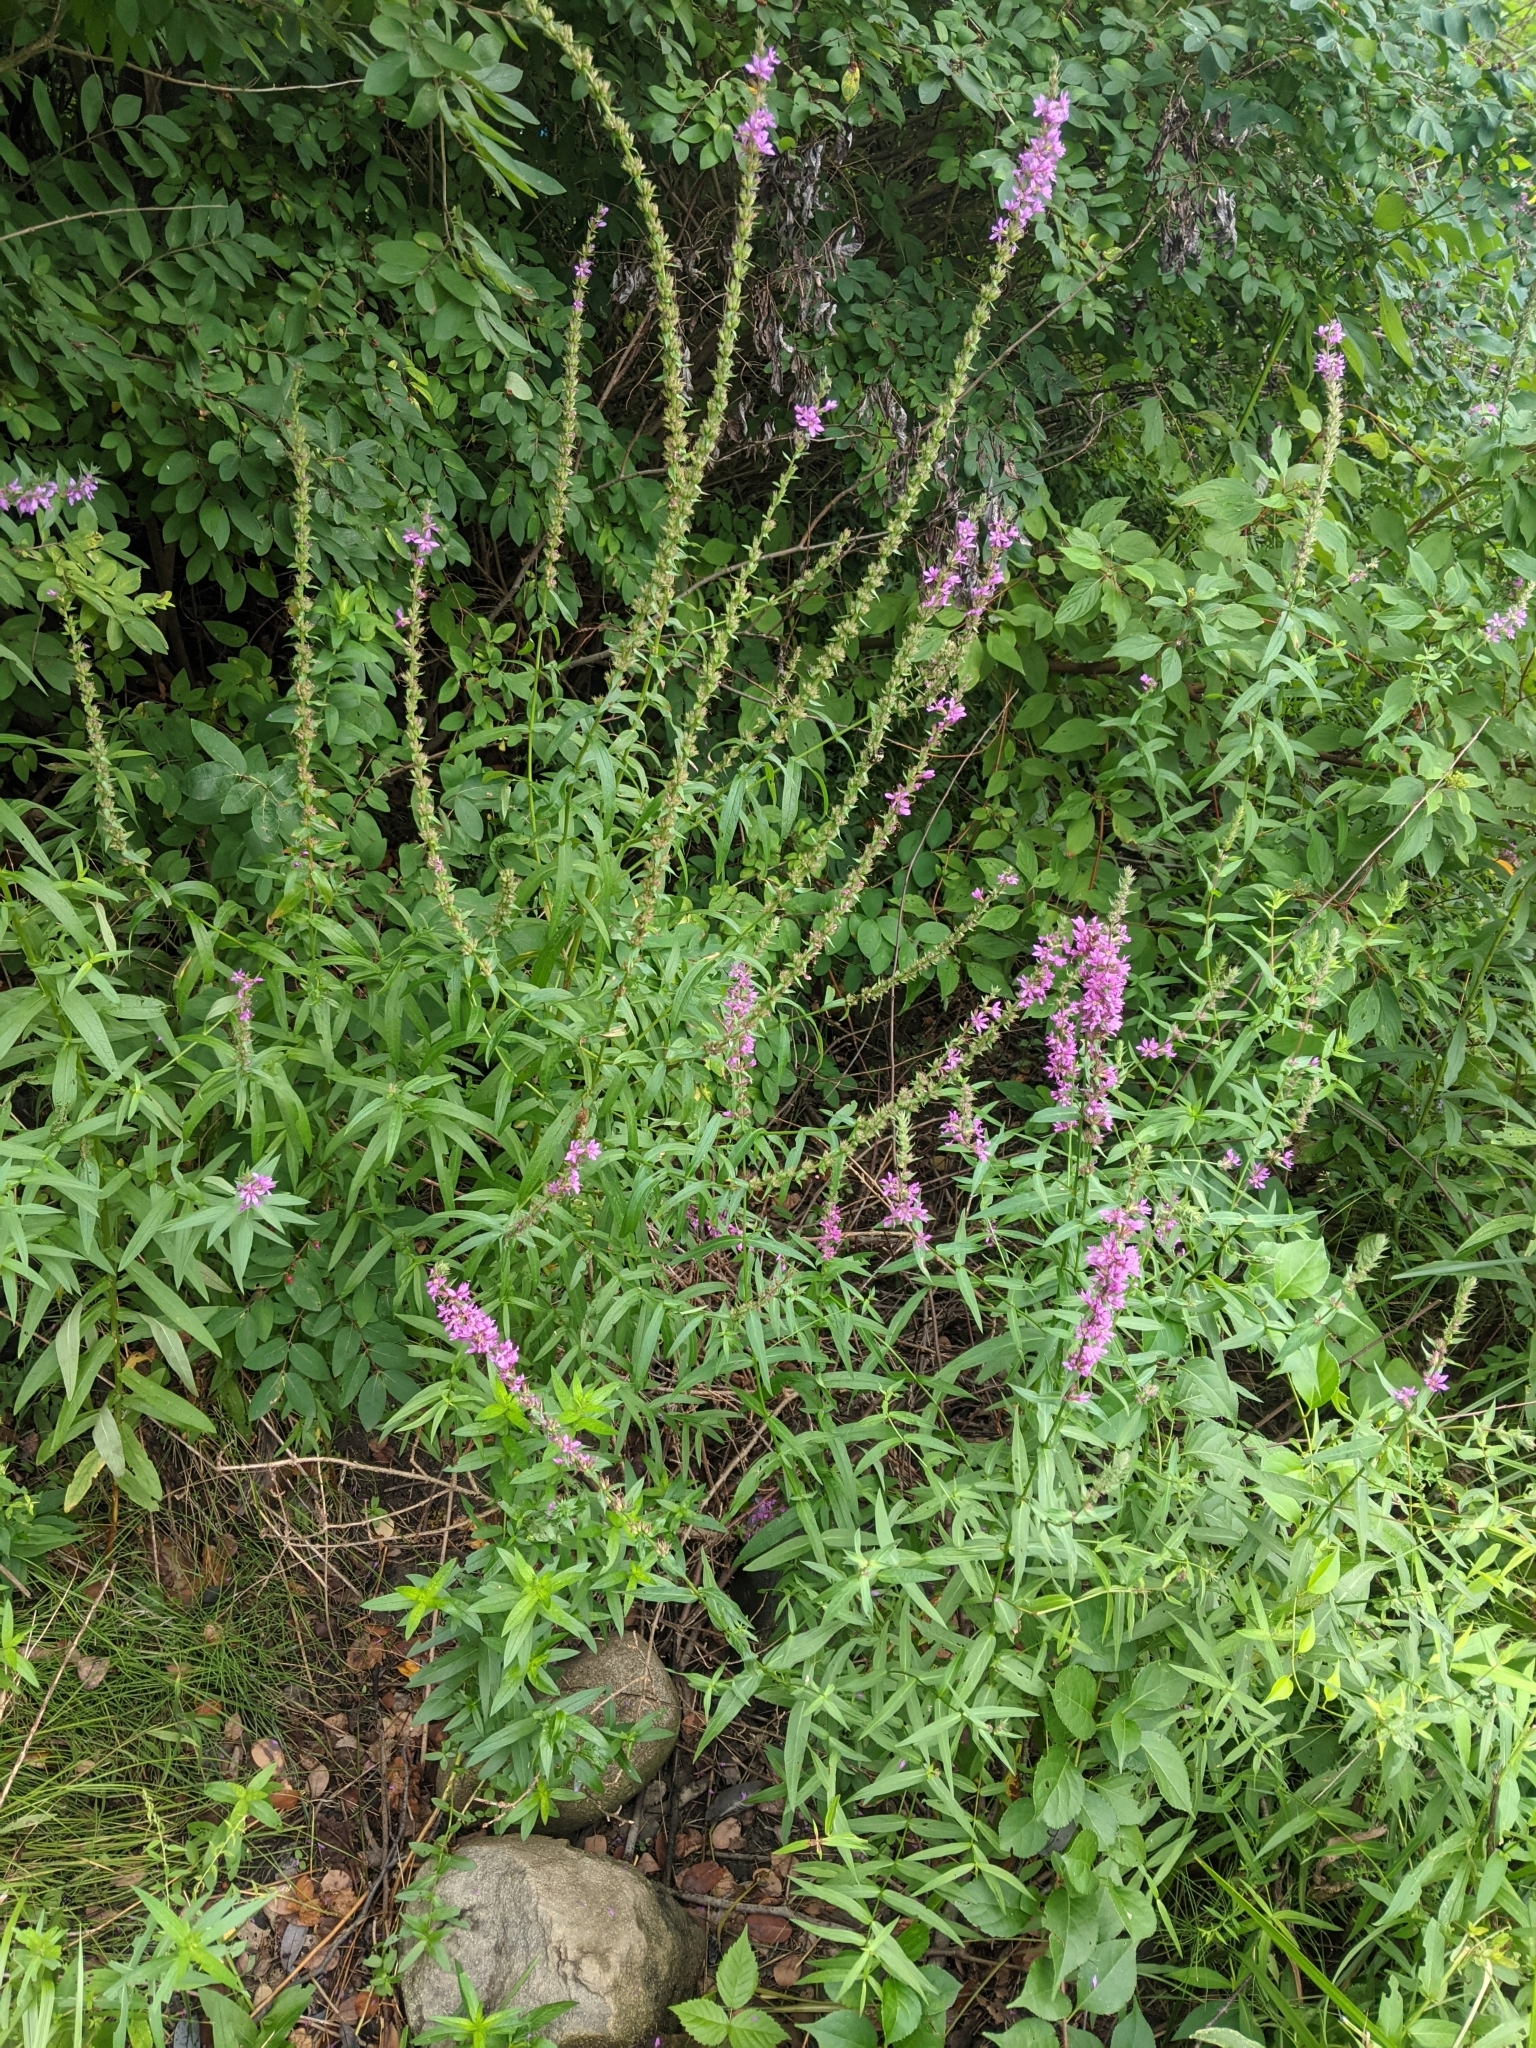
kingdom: Plantae
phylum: Tracheophyta
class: Magnoliopsida
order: Myrtales
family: Lythraceae
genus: Lythrum
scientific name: Lythrum salicaria
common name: Purple loosestrife
